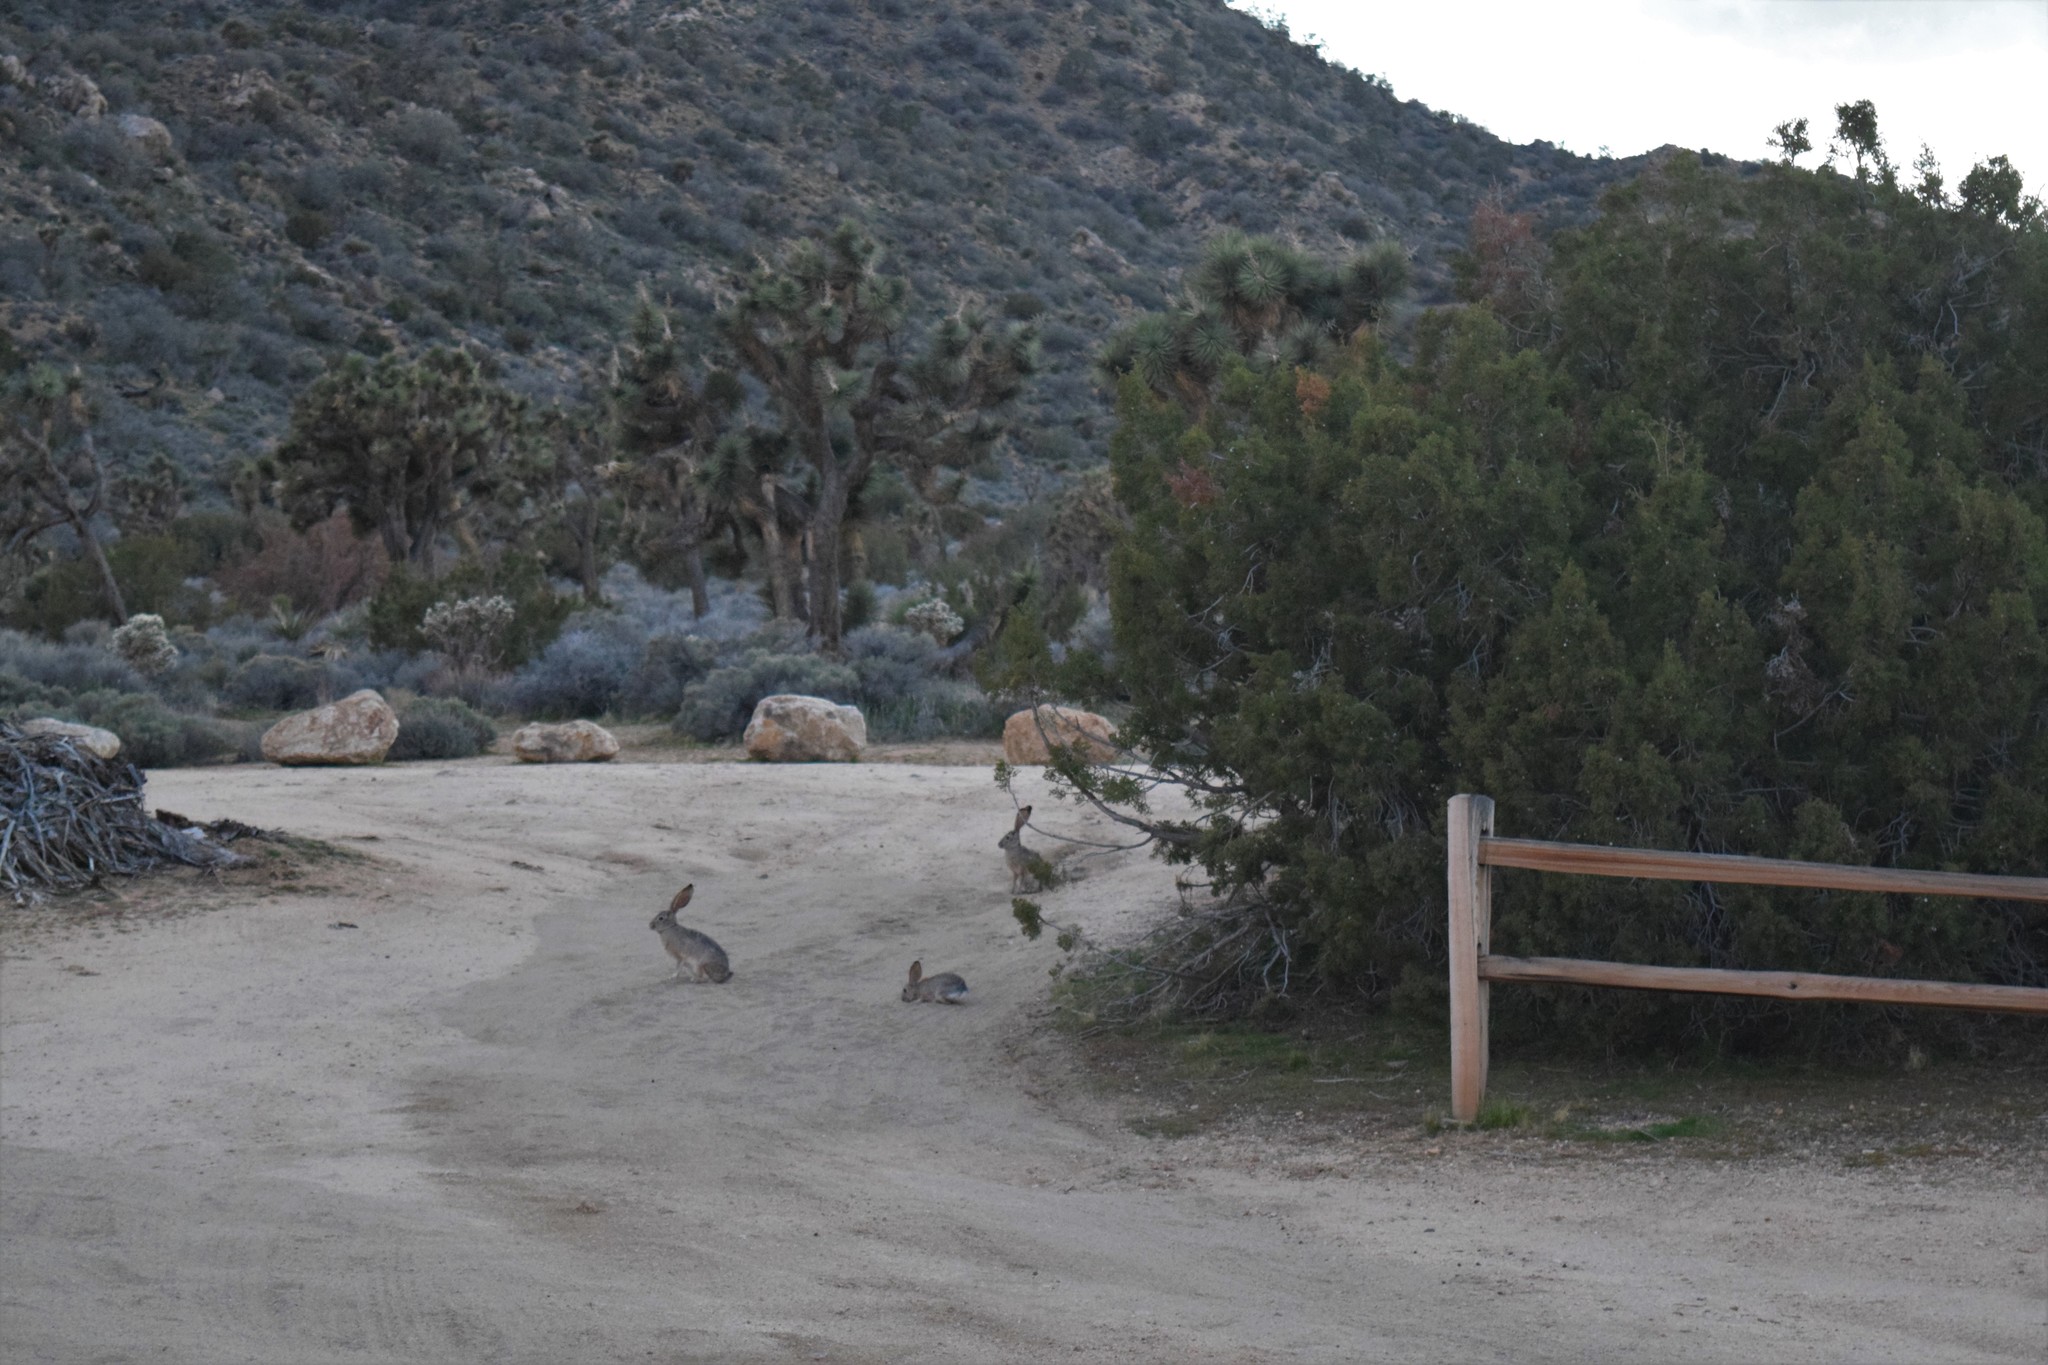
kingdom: Animalia
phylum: Chordata
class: Mammalia
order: Lagomorpha
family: Leporidae
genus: Lepus
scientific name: Lepus californicus
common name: Black-tailed jackrabbit
